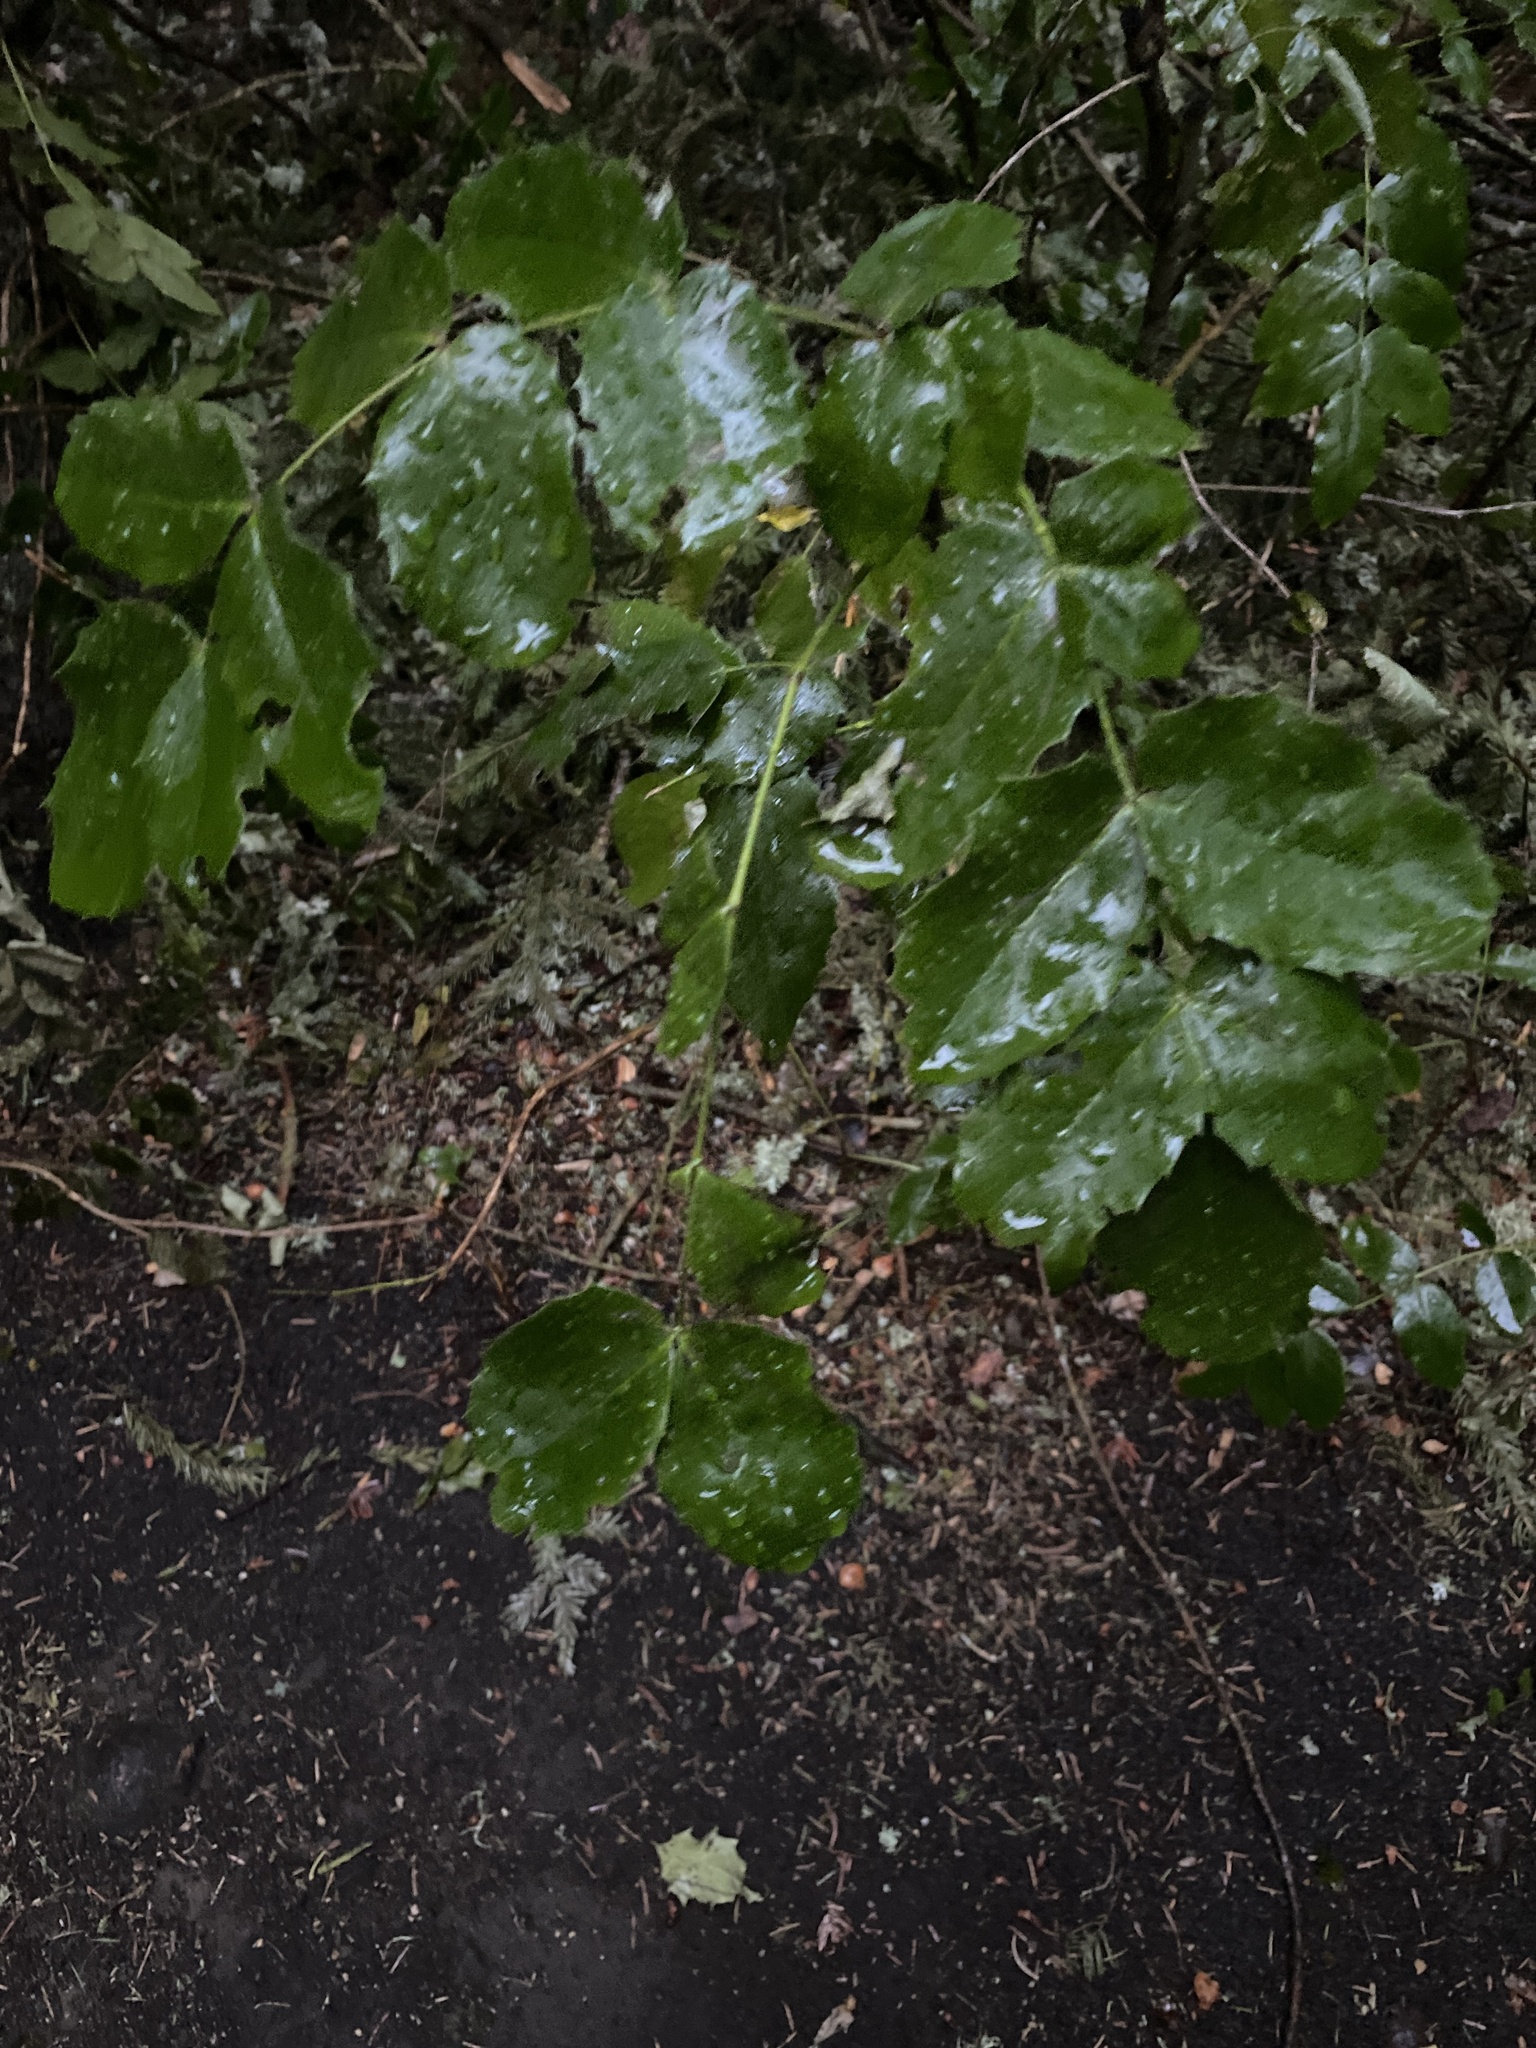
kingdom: Plantae
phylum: Tracheophyta
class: Magnoliopsida
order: Ranunculales
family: Berberidaceae
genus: Mahonia
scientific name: Mahonia aquifolium
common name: Oregon-grape
